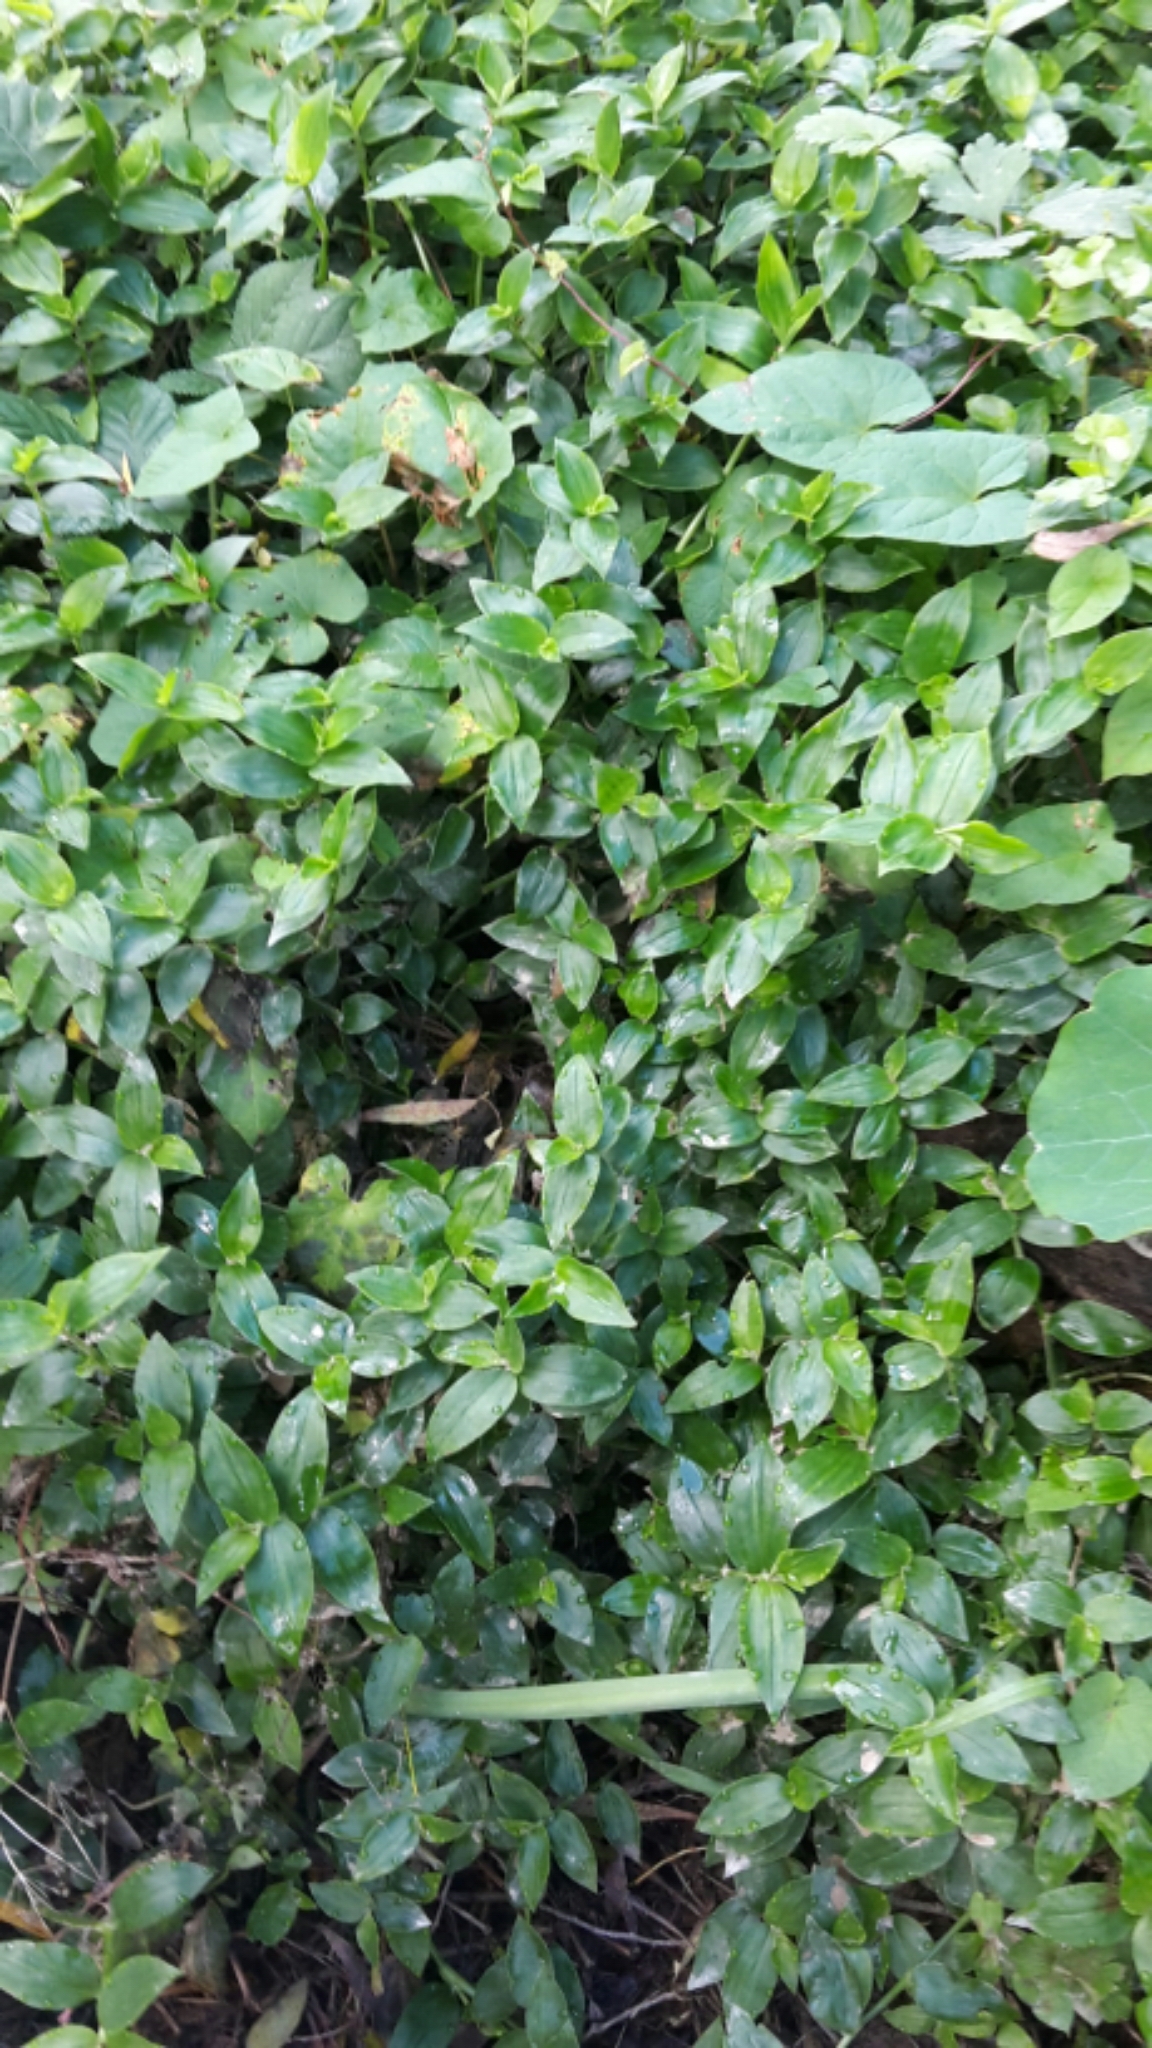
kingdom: Plantae
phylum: Tracheophyta
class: Liliopsida
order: Commelinales
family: Commelinaceae
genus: Tradescantia
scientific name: Tradescantia fluminensis
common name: Wandering-jew
